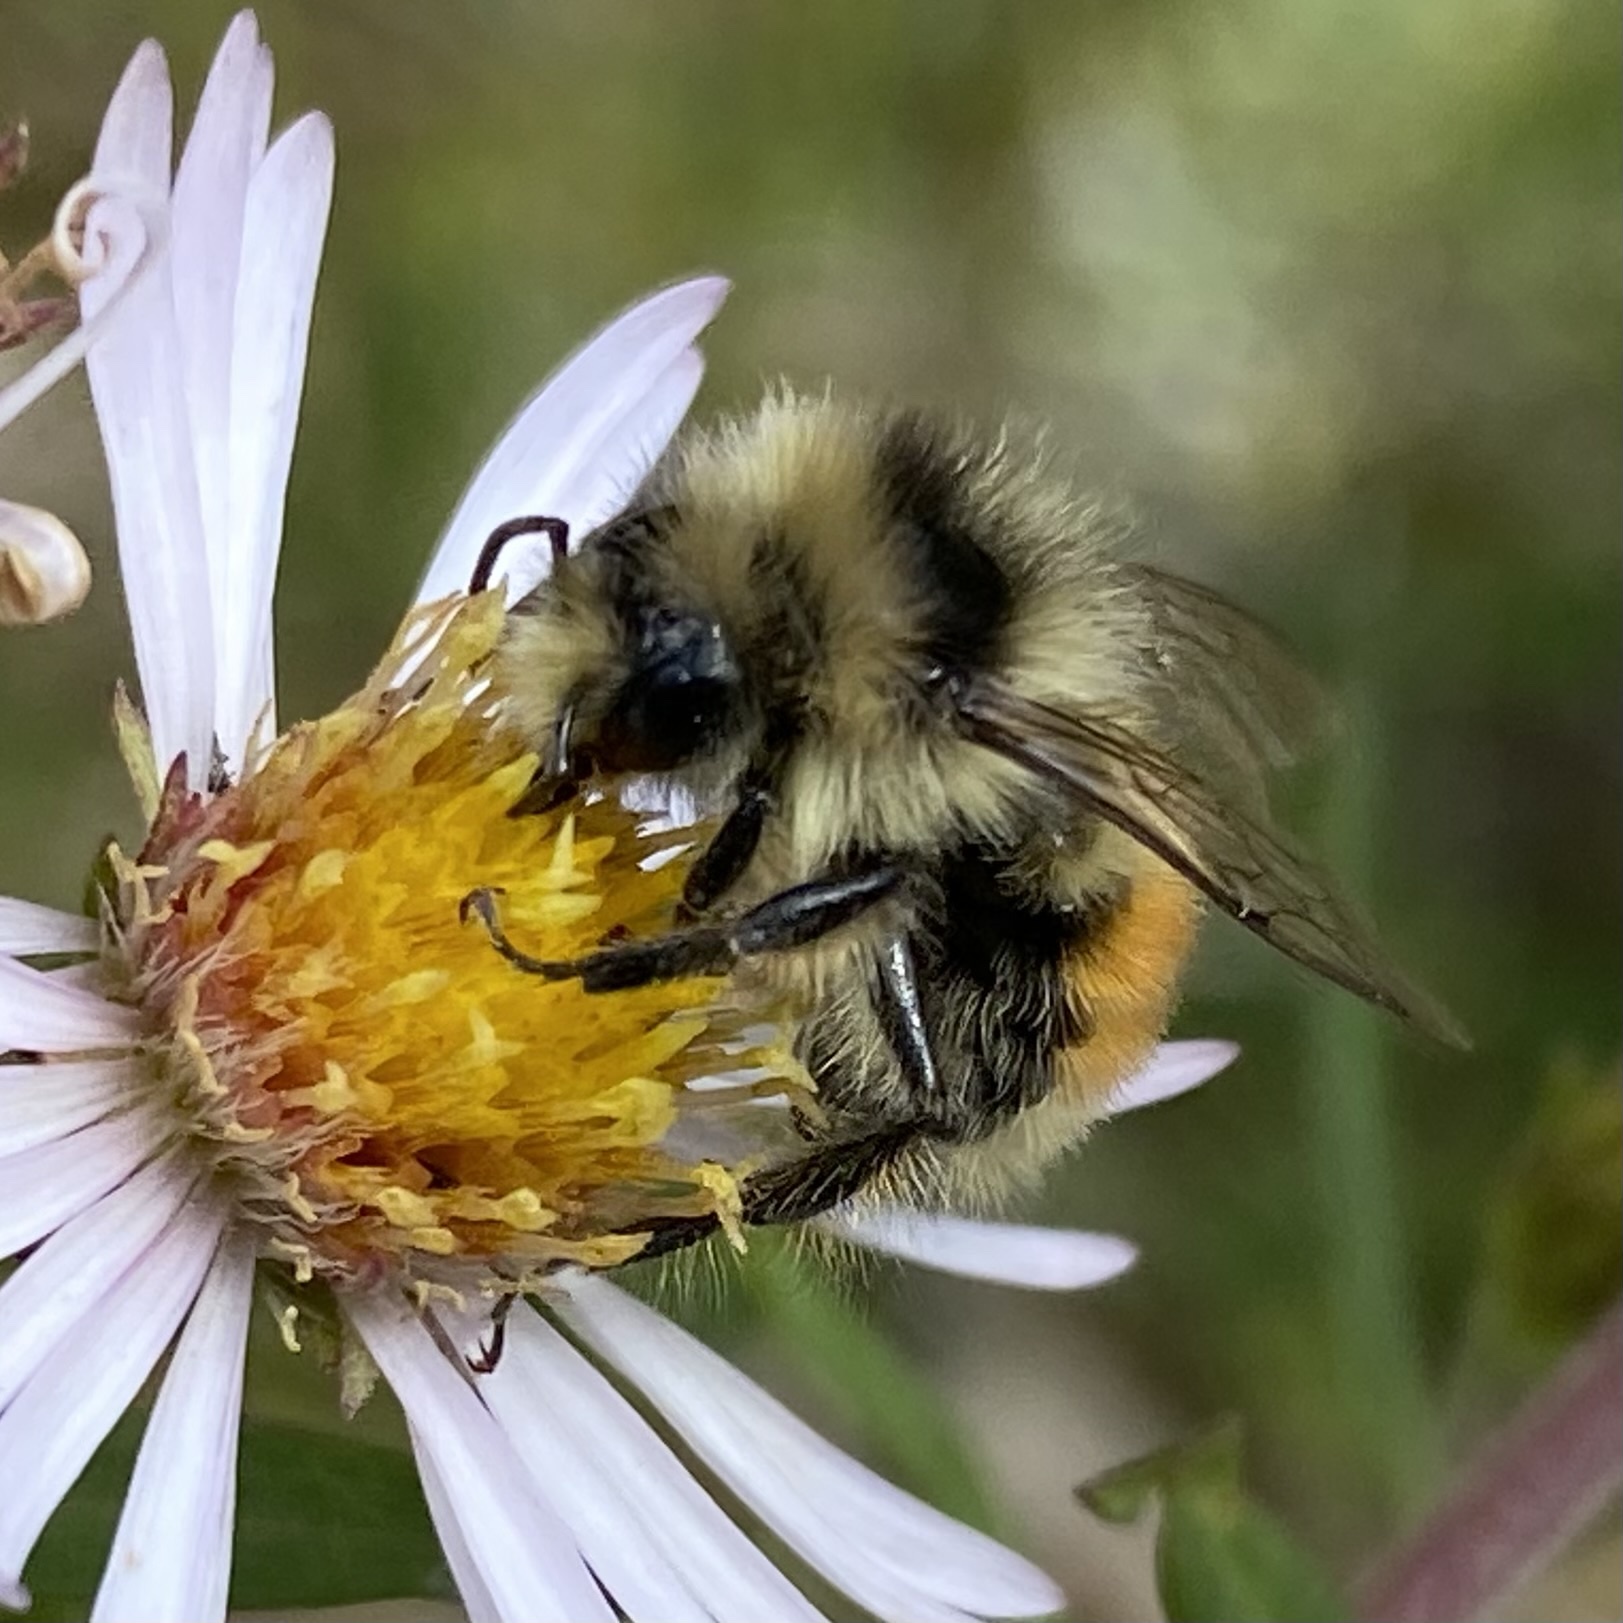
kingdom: Animalia
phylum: Arthropoda
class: Insecta
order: Hymenoptera
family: Apidae
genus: Bombus
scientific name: Bombus sylvicola
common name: Forest bumble bee
